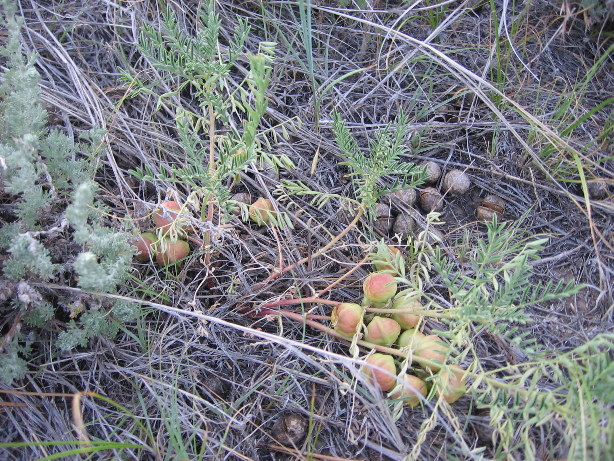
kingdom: Plantae
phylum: Tracheophyta
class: Magnoliopsida
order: Fabales
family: Fabaceae
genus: Astragalus
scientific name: Astragalus crassicarpus
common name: Ground-plum milk-vetch
